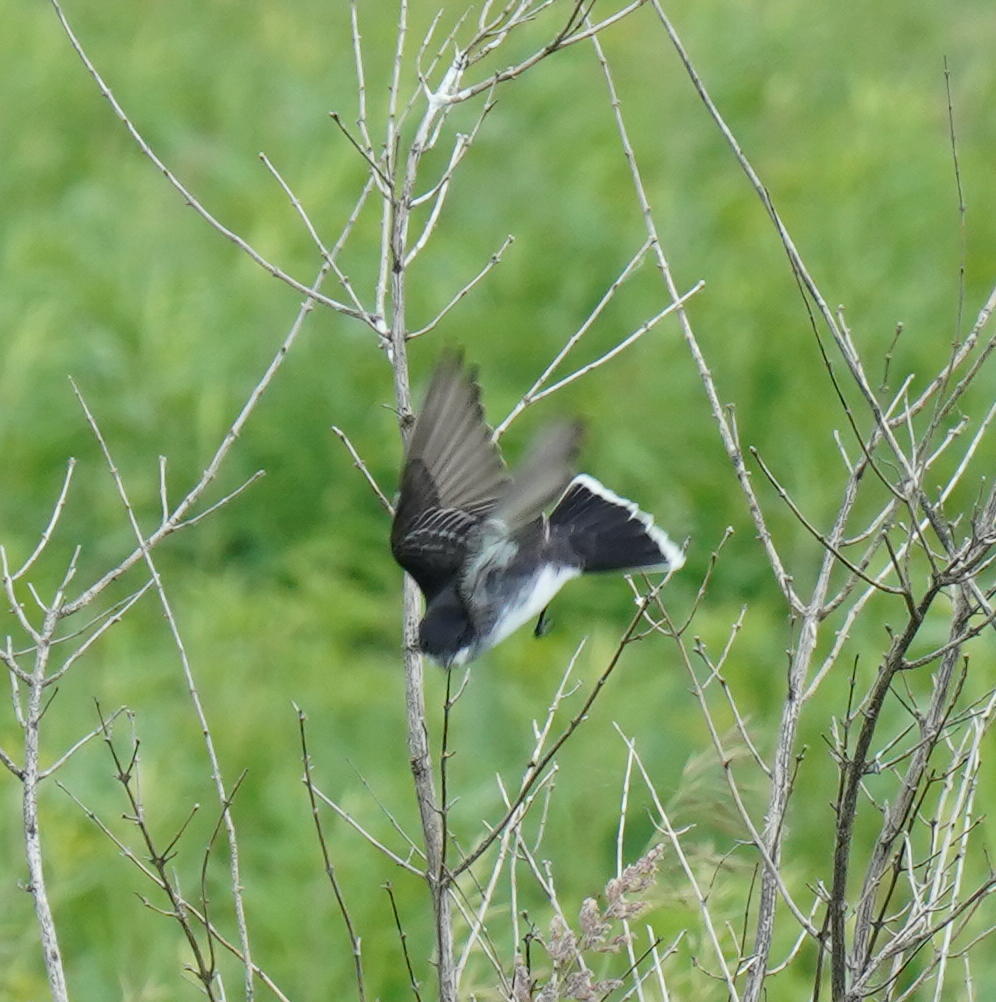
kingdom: Animalia
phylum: Chordata
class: Aves
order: Passeriformes
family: Tyrannidae
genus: Tyrannus
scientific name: Tyrannus tyrannus
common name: Eastern kingbird
